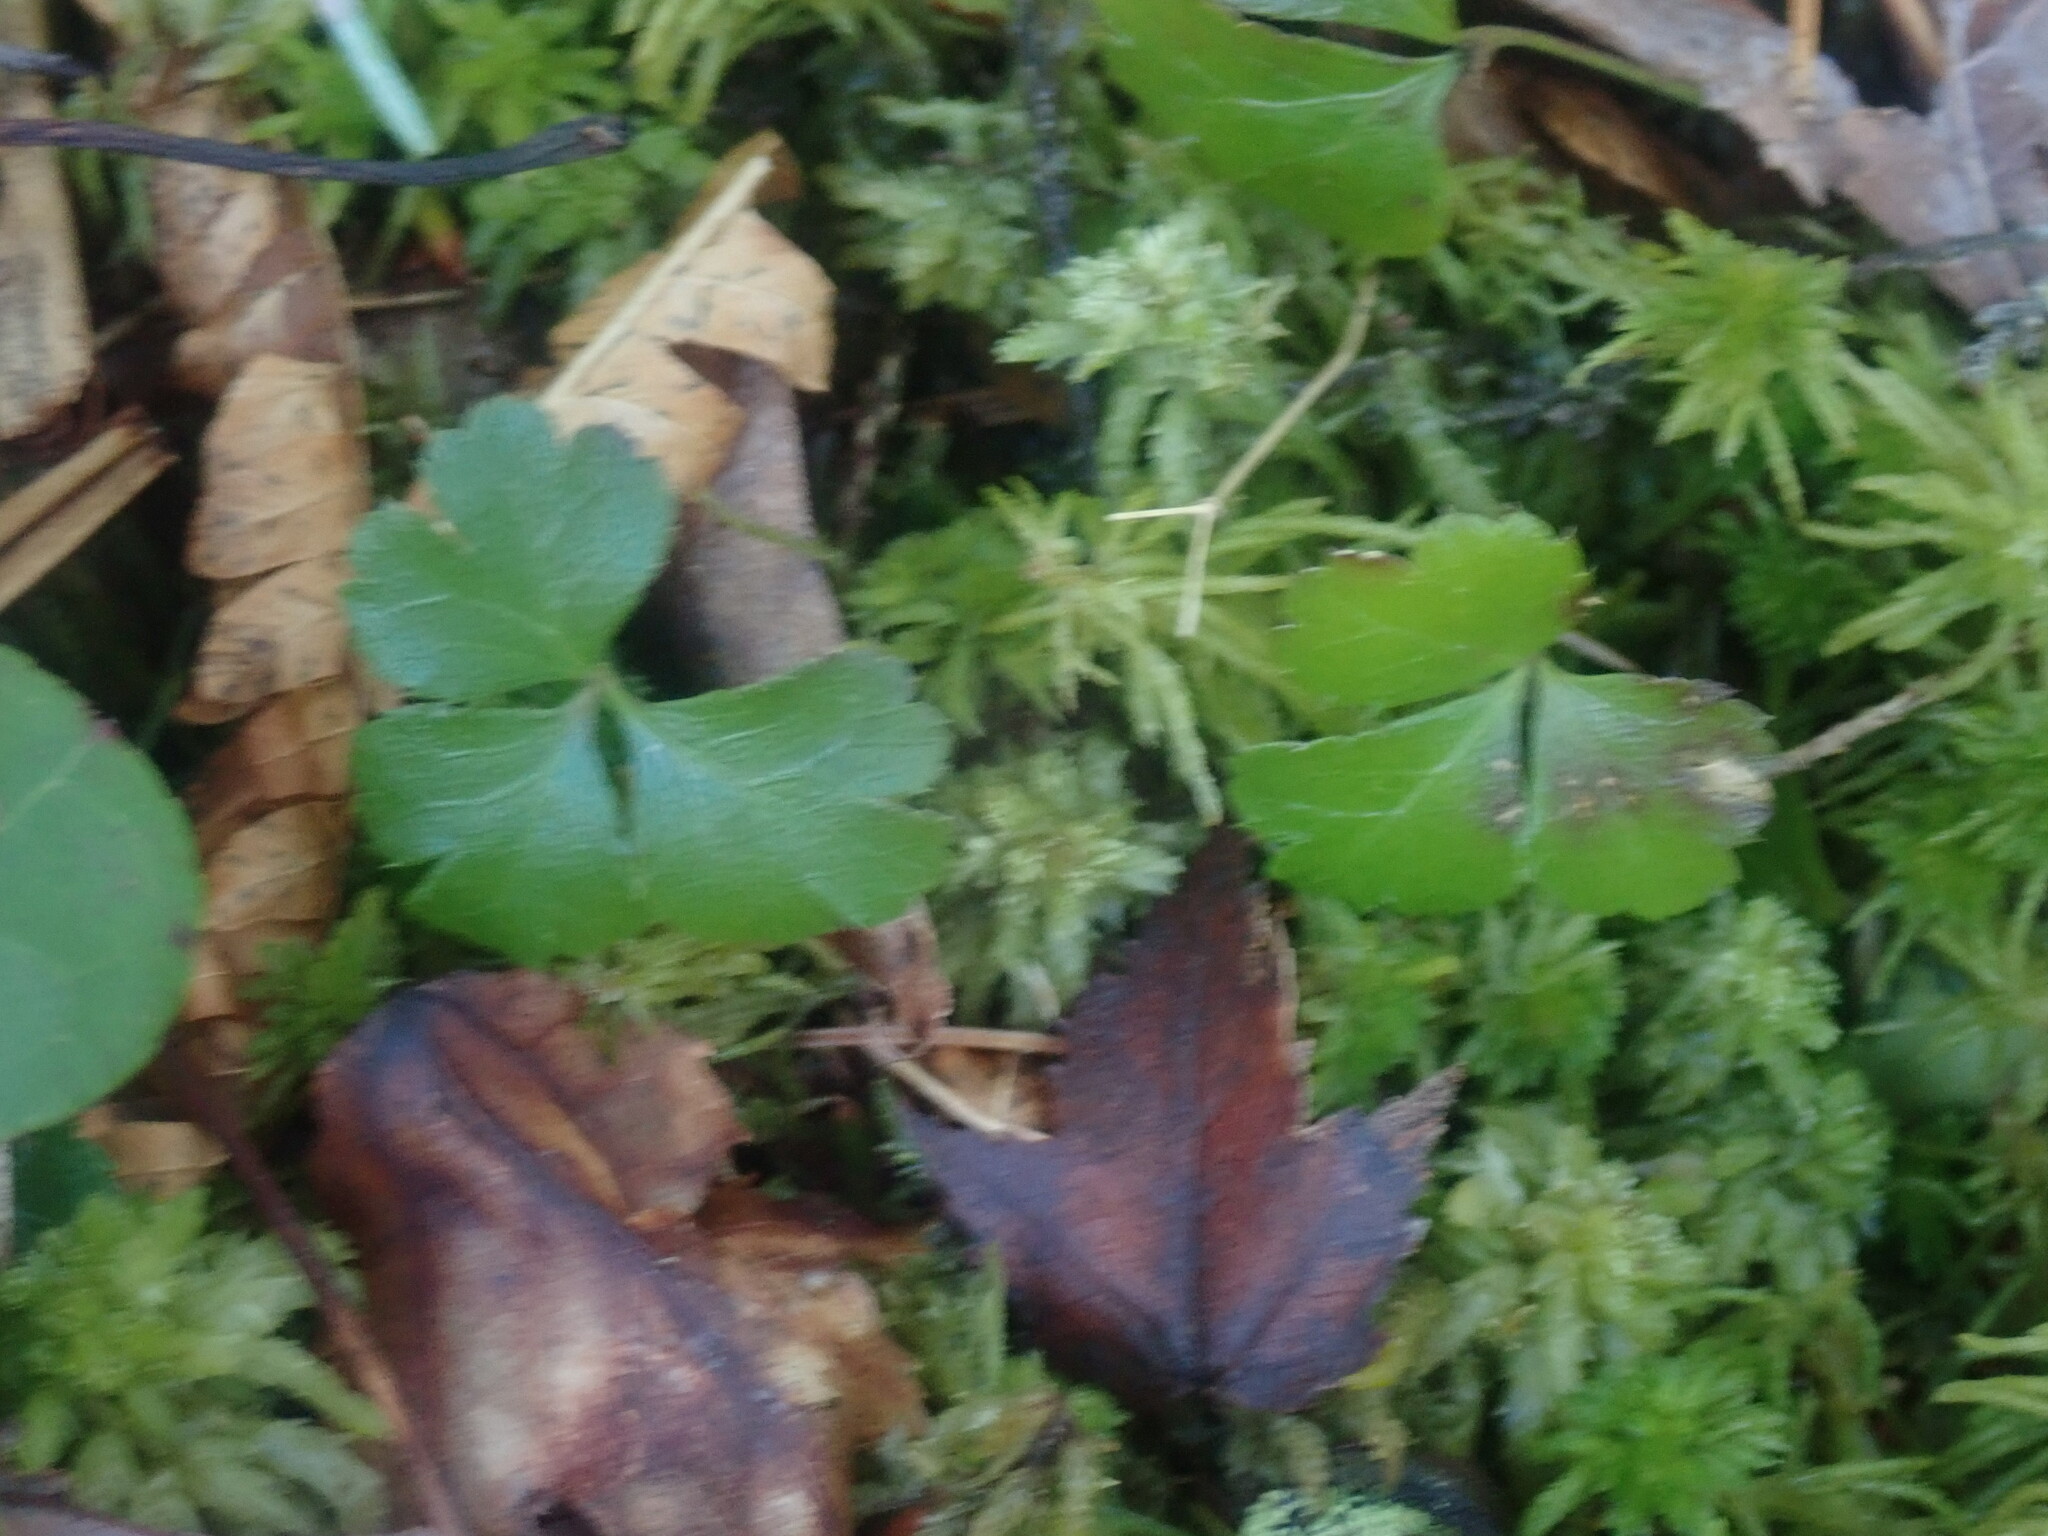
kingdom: Plantae
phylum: Tracheophyta
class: Magnoliopsida
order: Ranunculales
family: Ranunculaceae
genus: Coptis
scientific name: Coptis trifolia
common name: Canker-root
